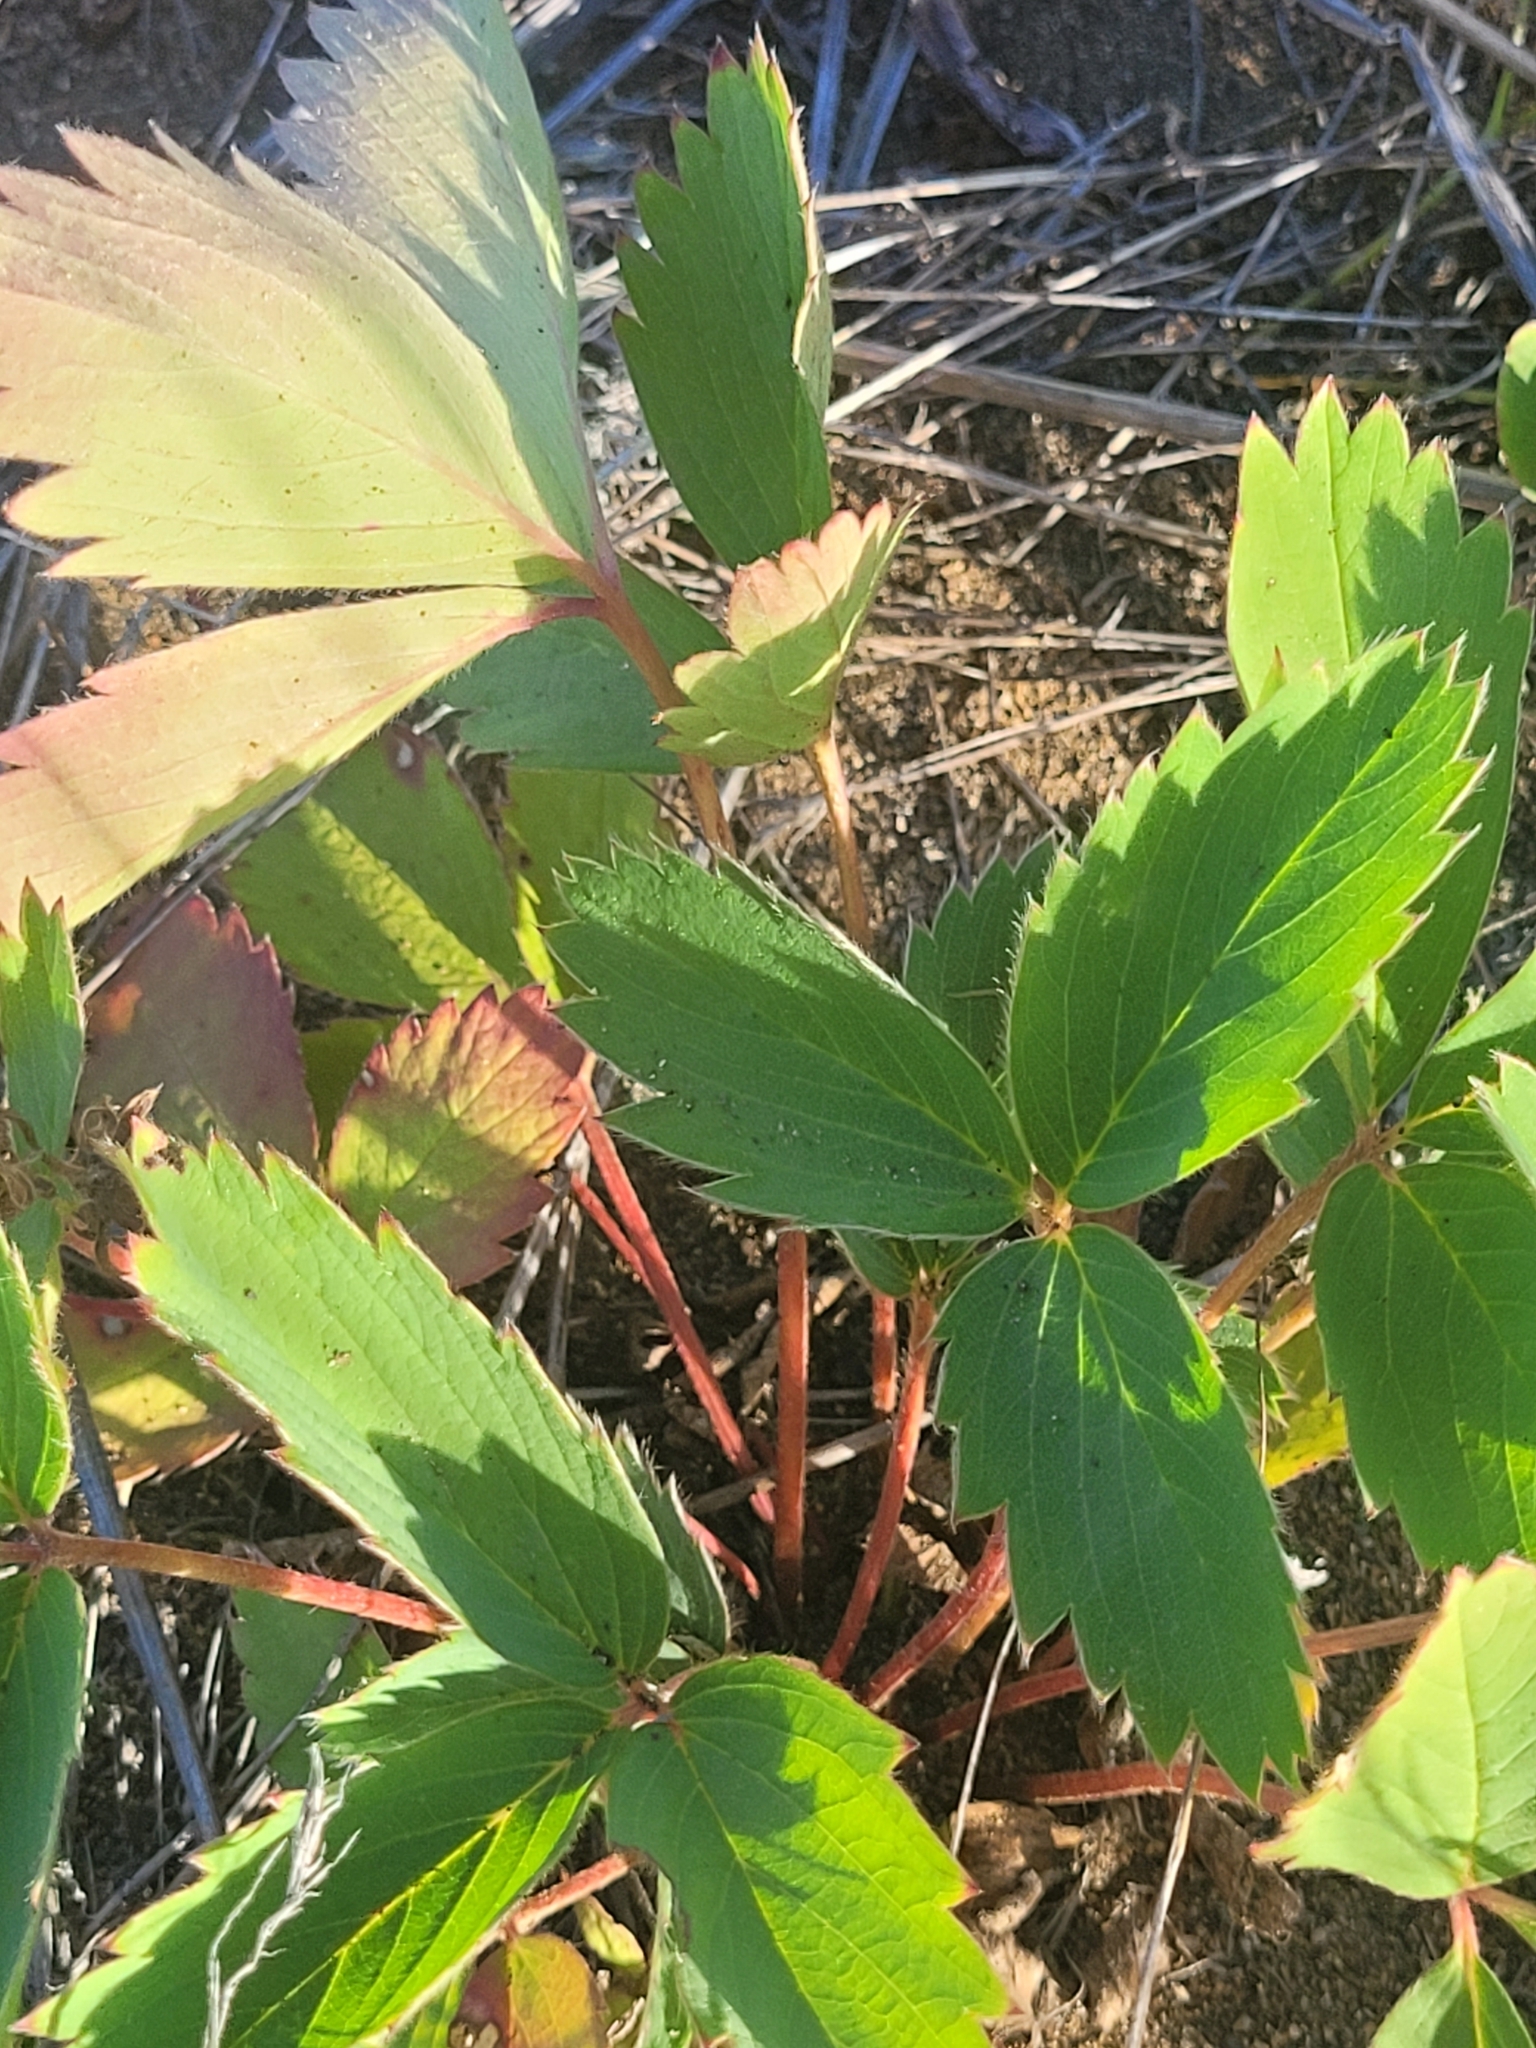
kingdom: Plantae
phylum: Tracheophyta
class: Magnoliopsida
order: Rosales
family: Rosaceae
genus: Fragaria
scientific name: Fragaria virginiana
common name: Thickleaved wild strawberry
